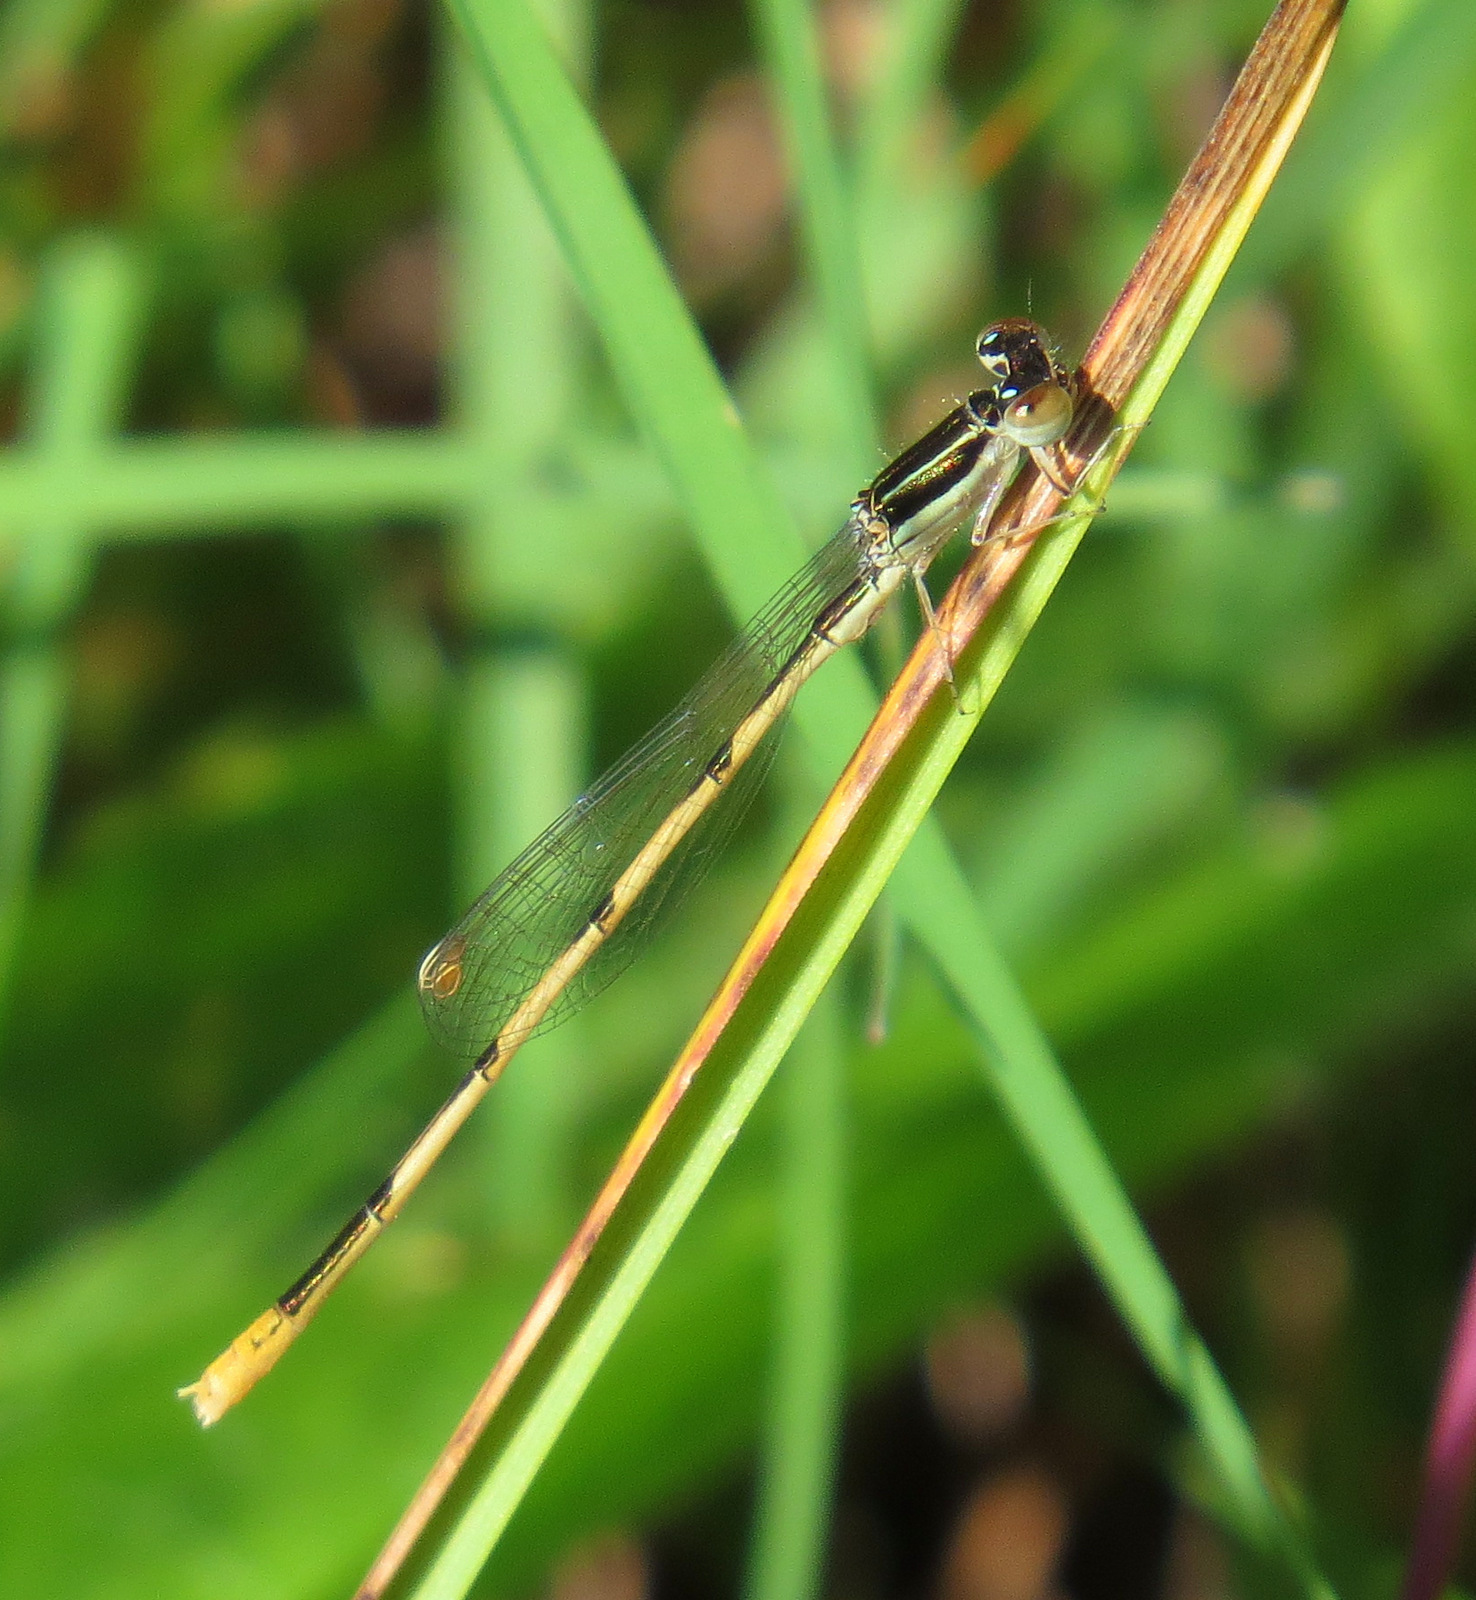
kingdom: Animalia
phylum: Arthropoda
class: Insecta
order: Odonata
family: Coenagrionidae
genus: Ischnura
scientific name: Ischnura hastata
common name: Citrine forktail
